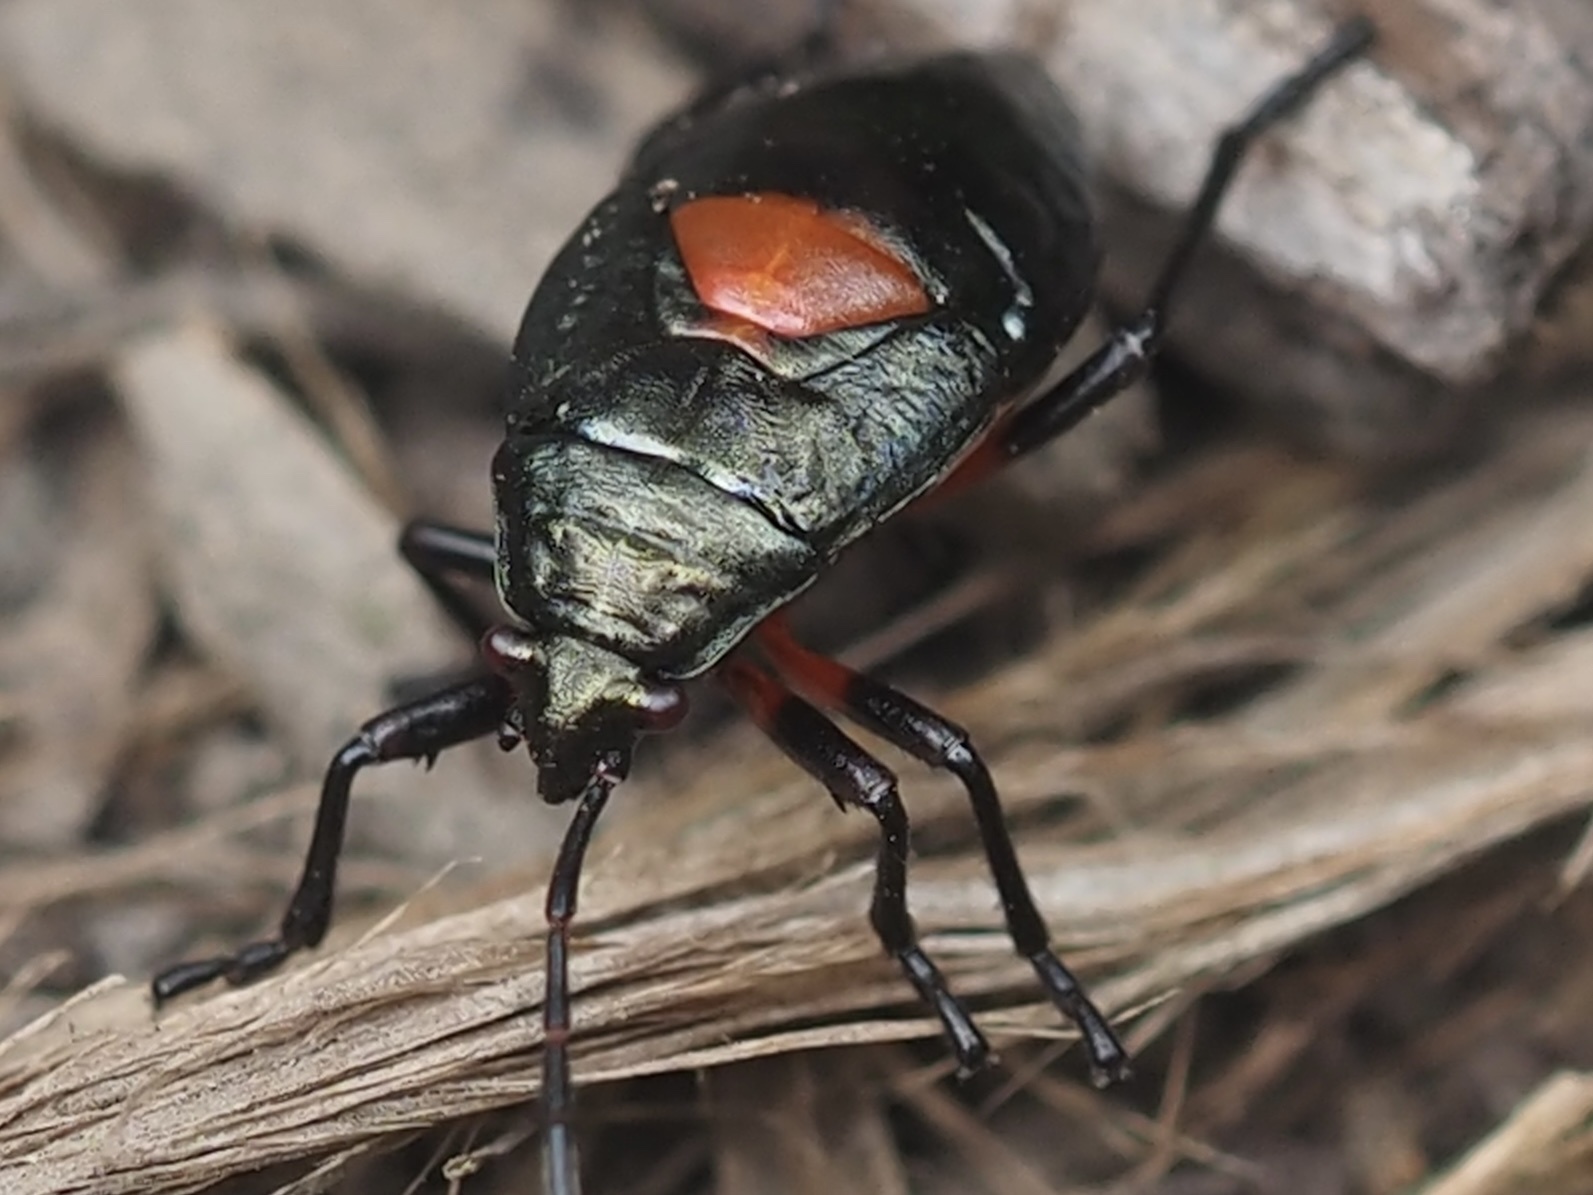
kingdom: Animalia
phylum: Arthropoda
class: Insecta
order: Hemiptera
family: Largidae
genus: Largus
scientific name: Largus californicus
